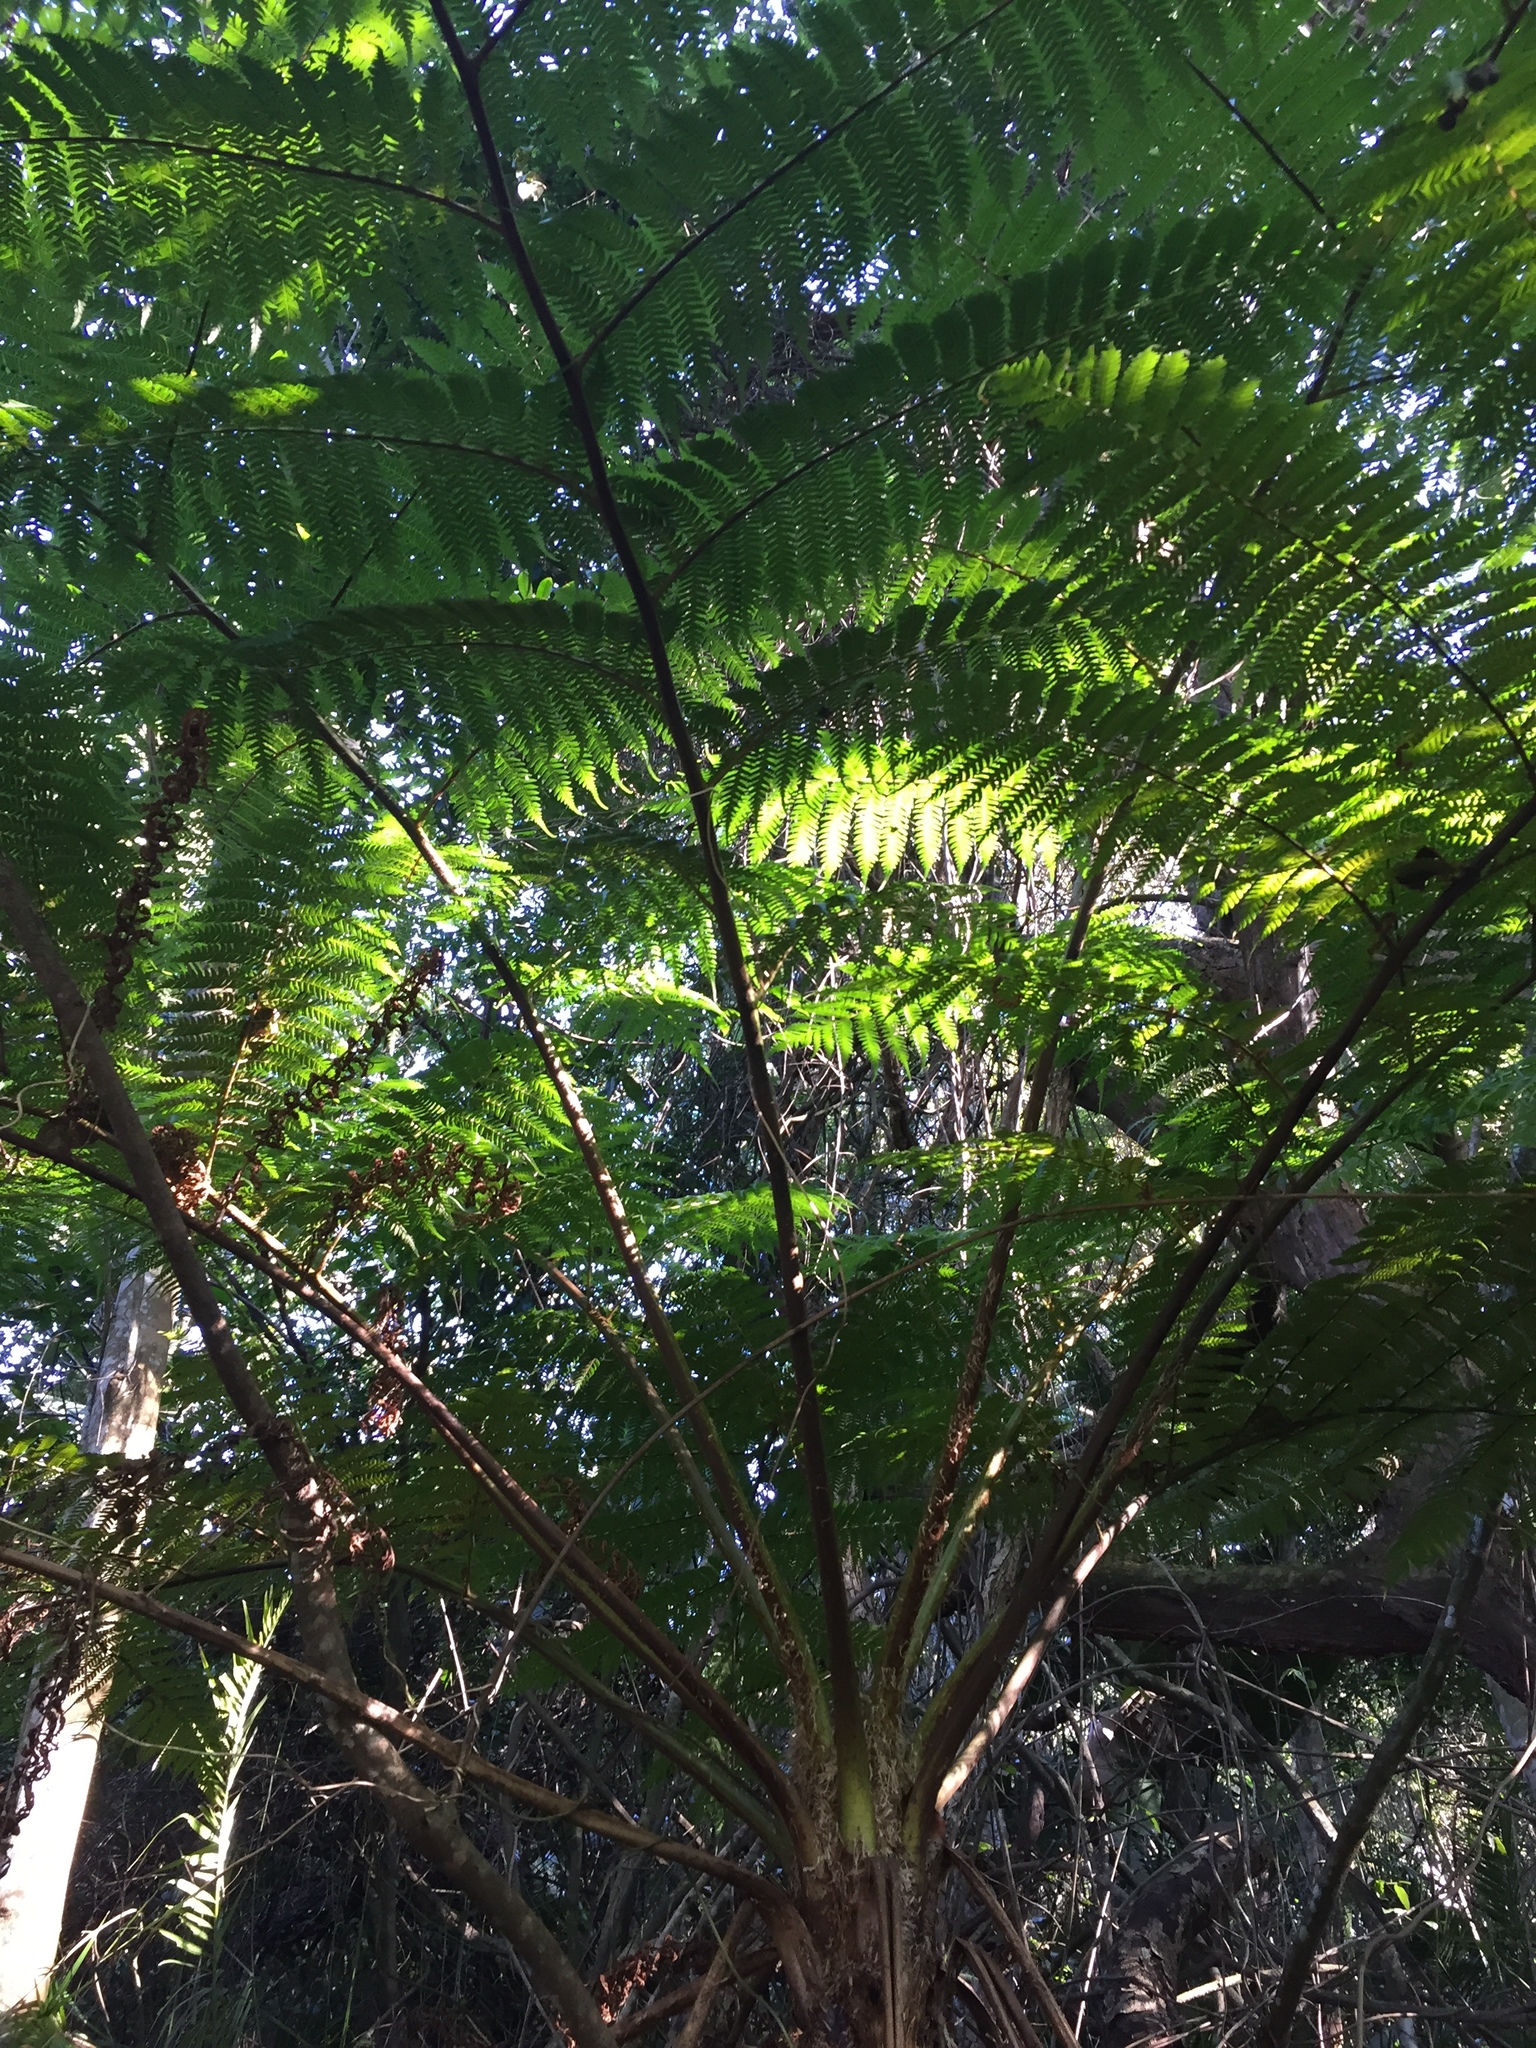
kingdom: Plantae
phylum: Tracheophyta
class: Polypodiopsida
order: Cyatheales
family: Cyatheaceae
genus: Sphaeropteris
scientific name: Sphaeropteris cooperi
